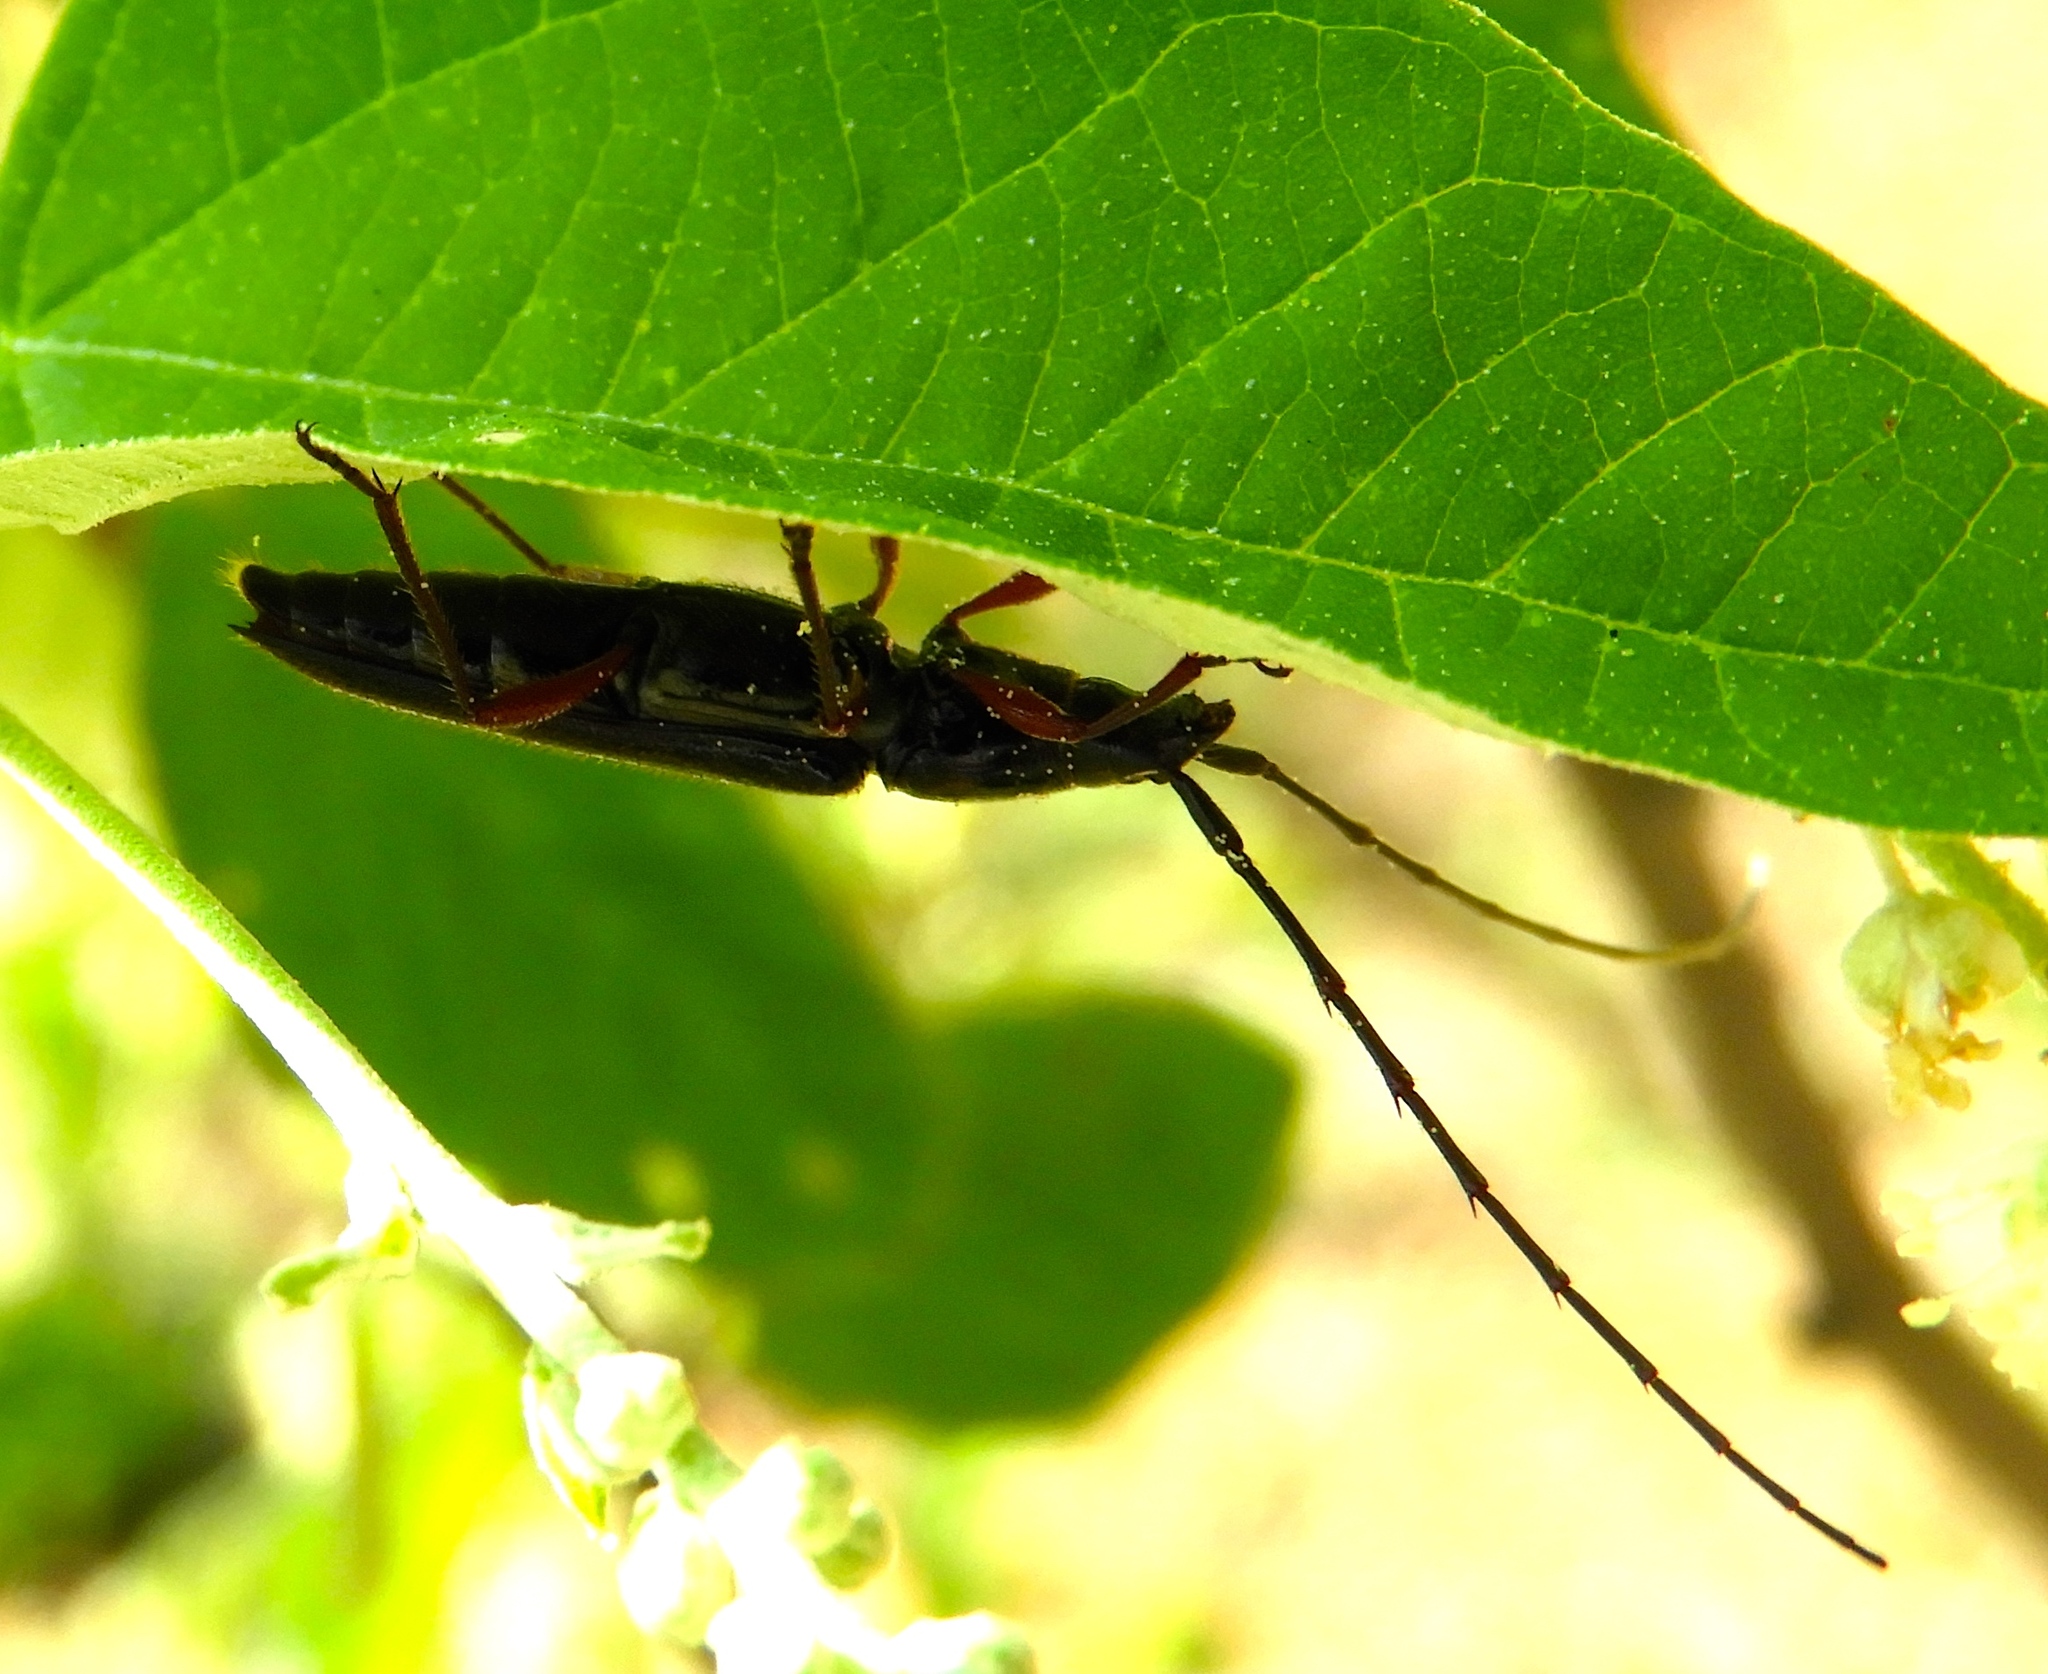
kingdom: Animalia
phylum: Arthropoda
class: Insecta
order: Coleoptera
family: Cerambycidae
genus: Stenosphenus
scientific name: Stenosphenus
